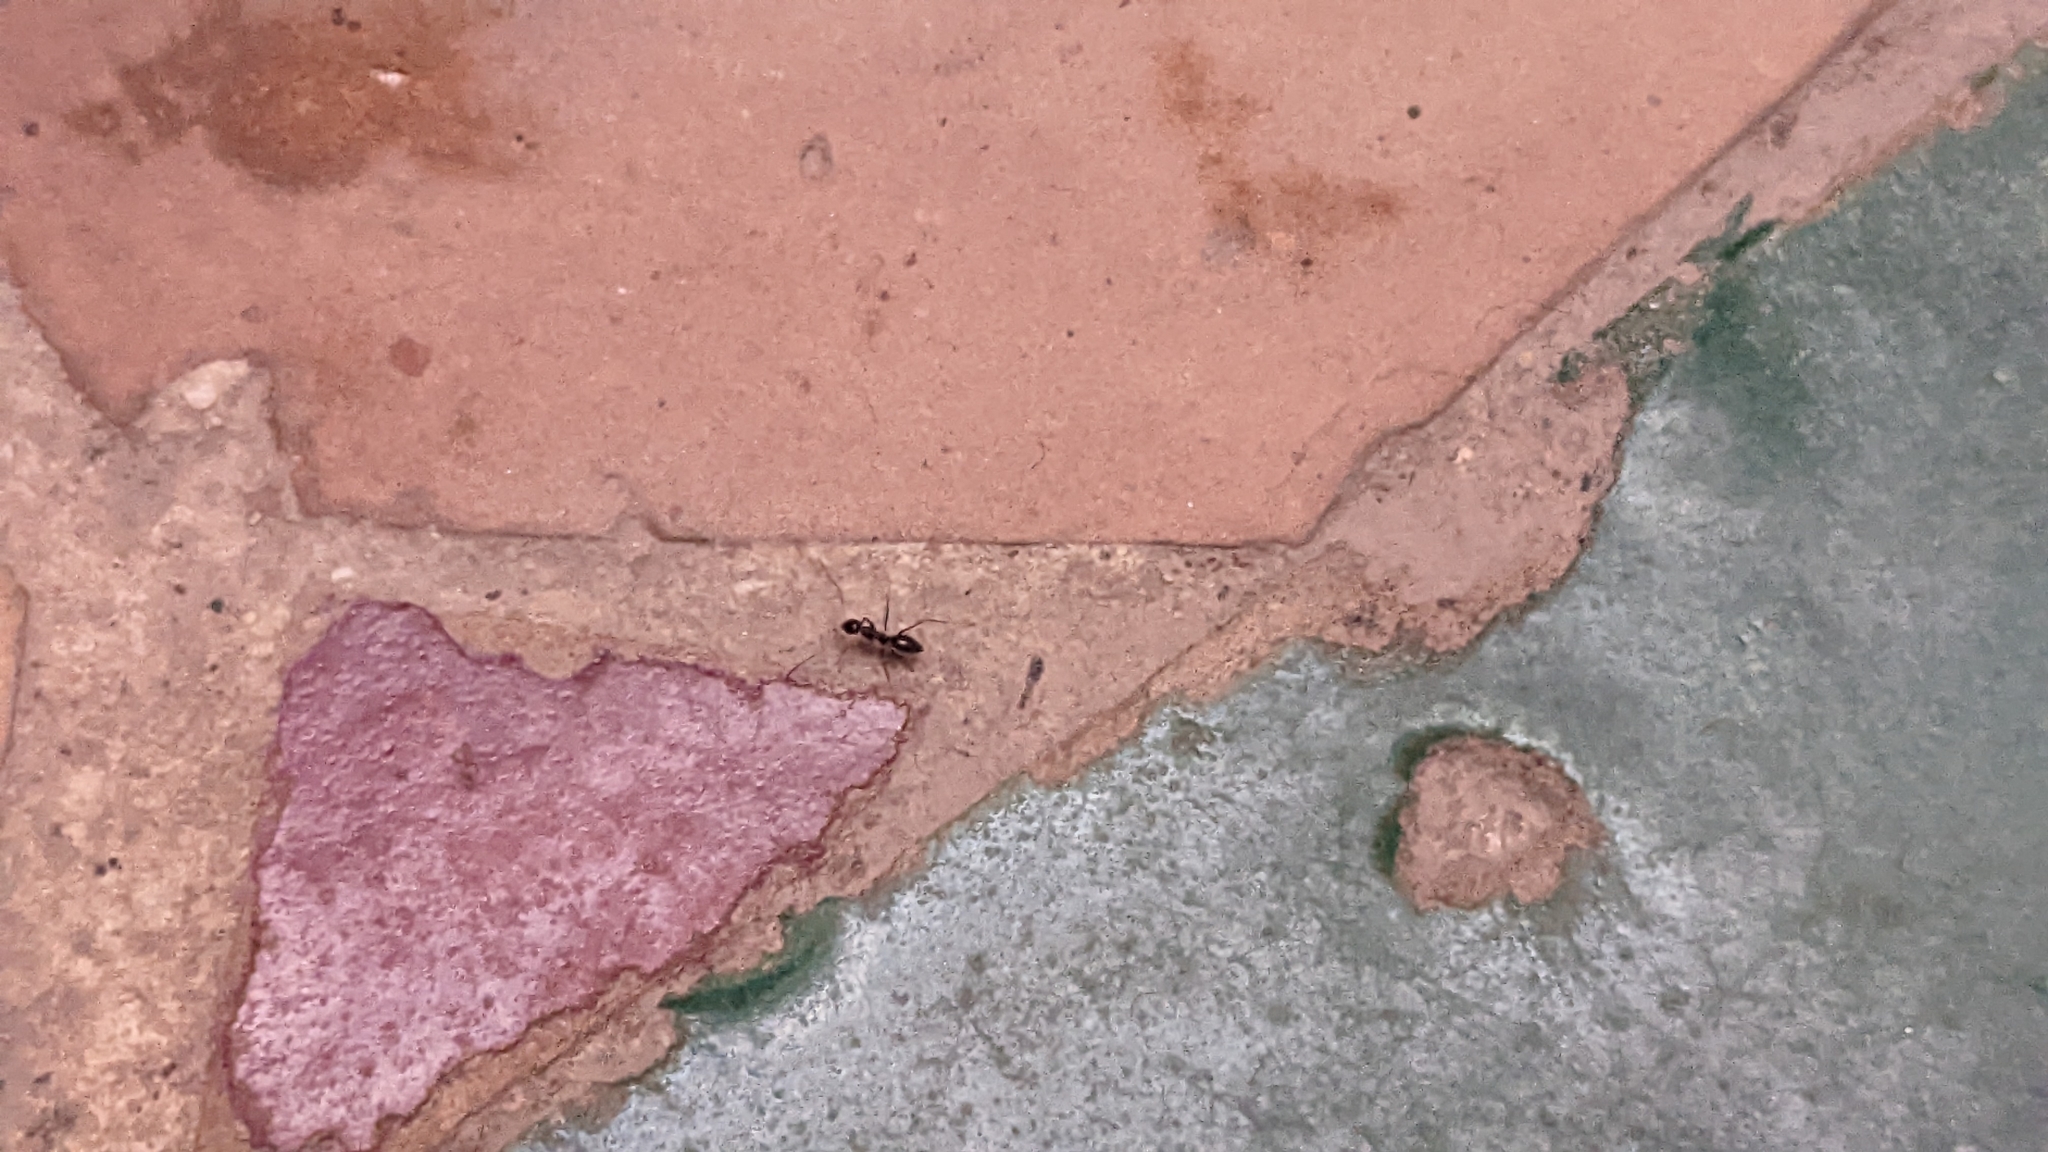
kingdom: Animalia
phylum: Arthropoda
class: Insecta
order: Hymenoptera
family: Formicidae
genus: Paratrechina
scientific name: Paratrechina longicornis
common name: Longhorned crazy ant
